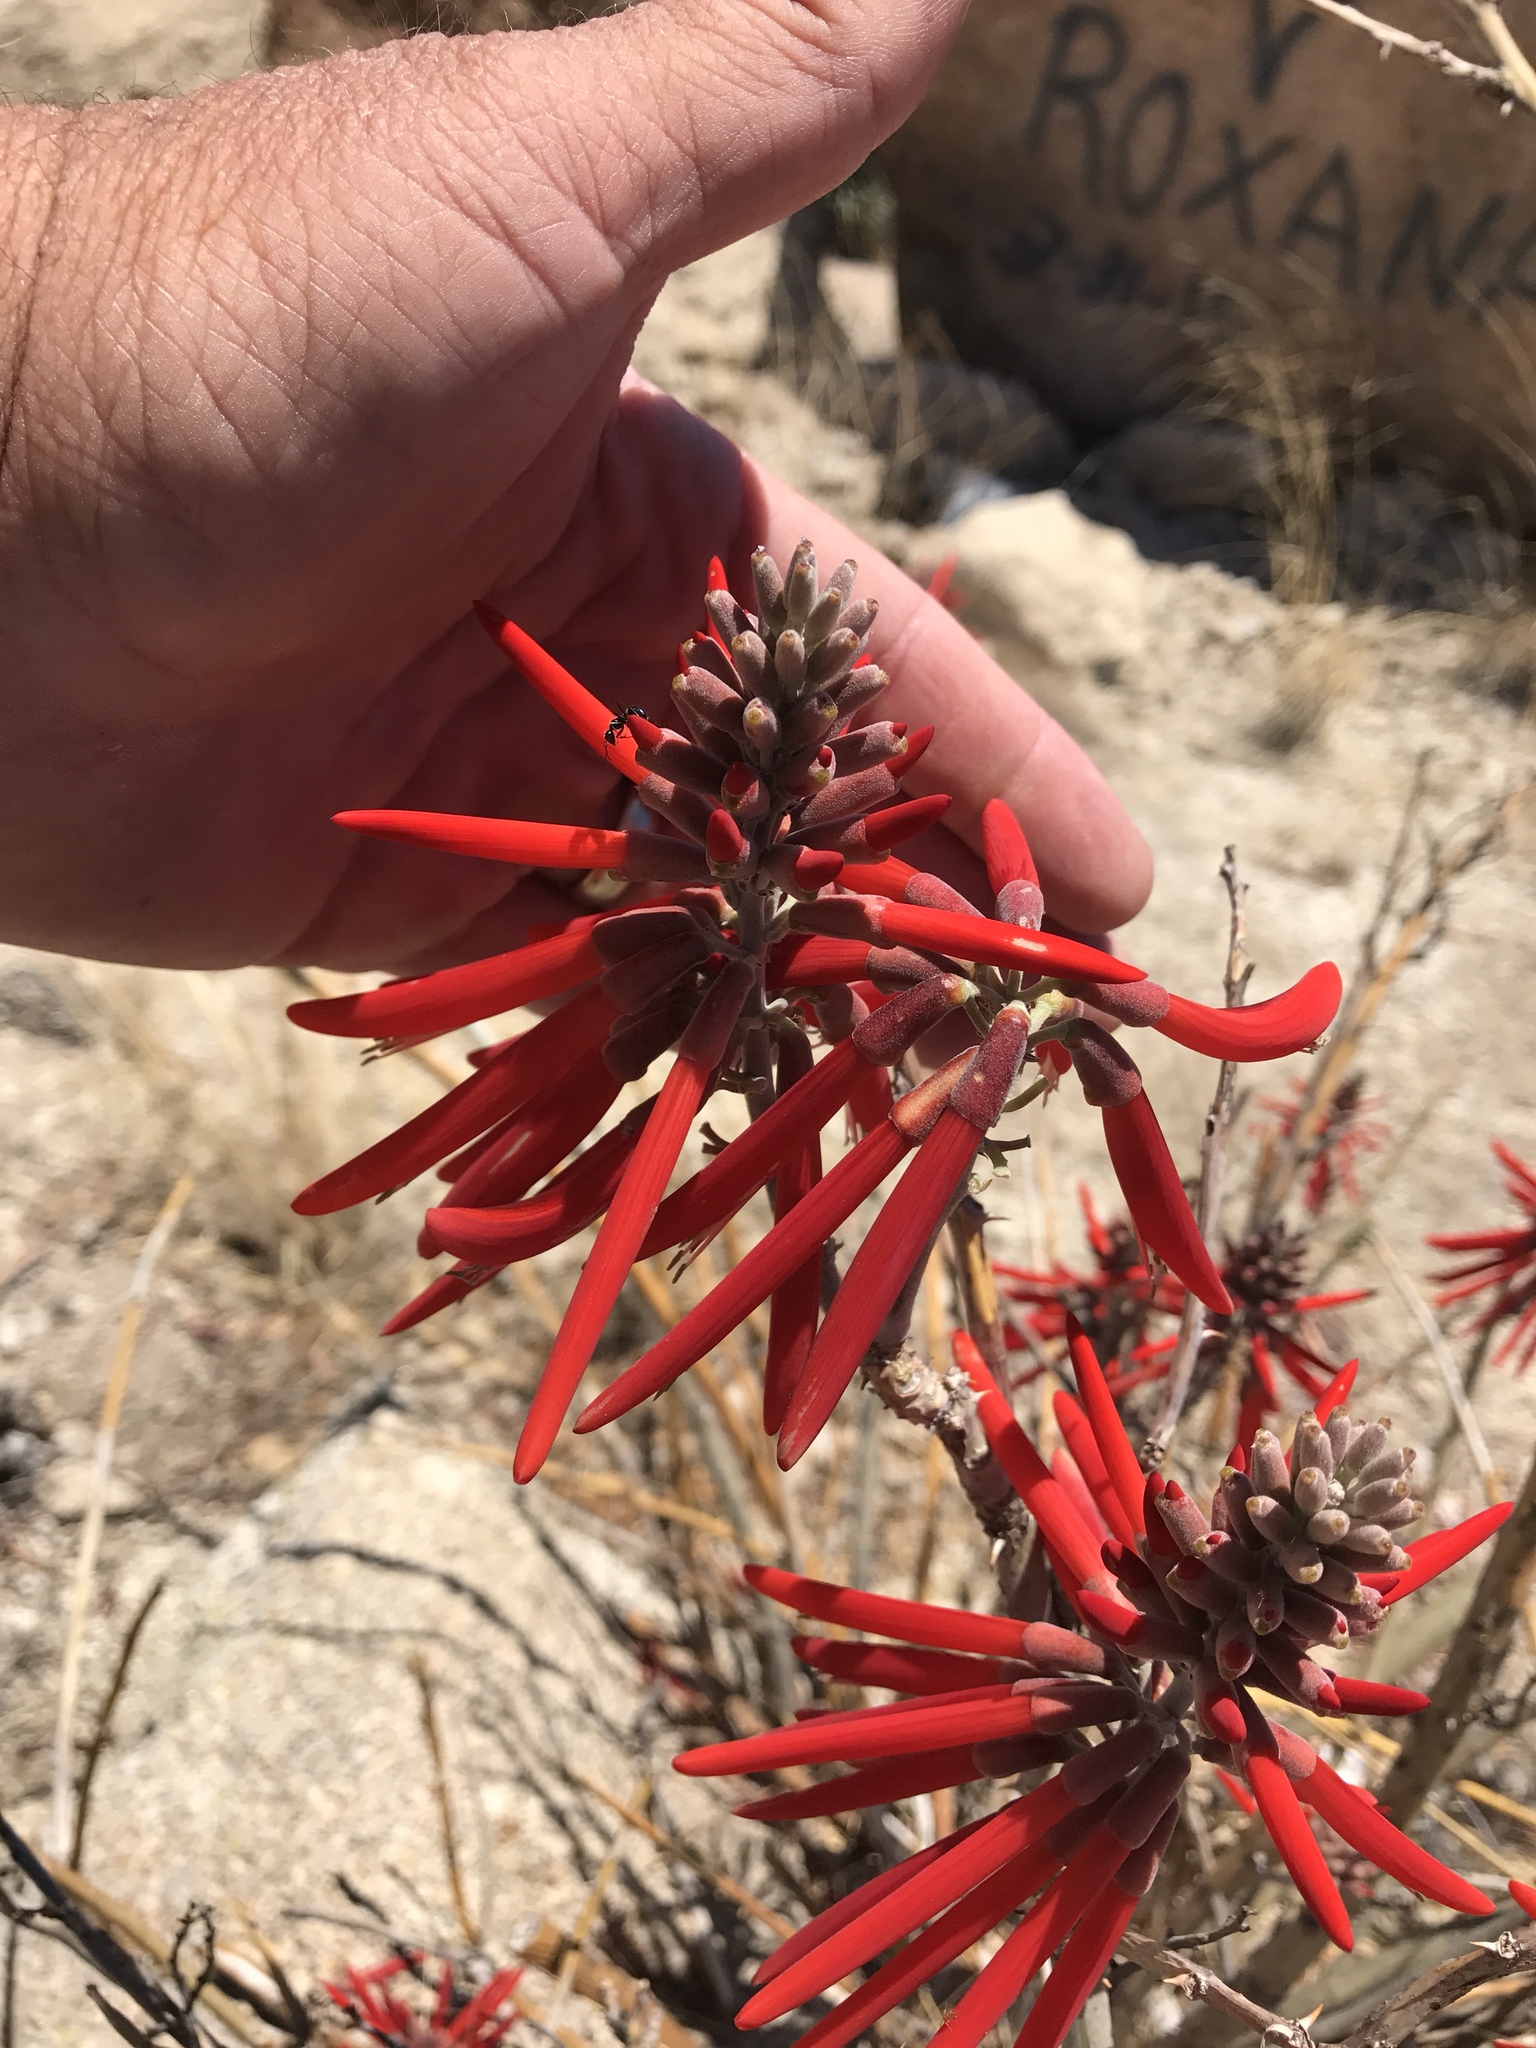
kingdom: Plantae
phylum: Tracheophyta
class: Magnoliopsida
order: Fabales
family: Fabaceae
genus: Erythrina
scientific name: Erythrina flabelliformis
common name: Chilicote
